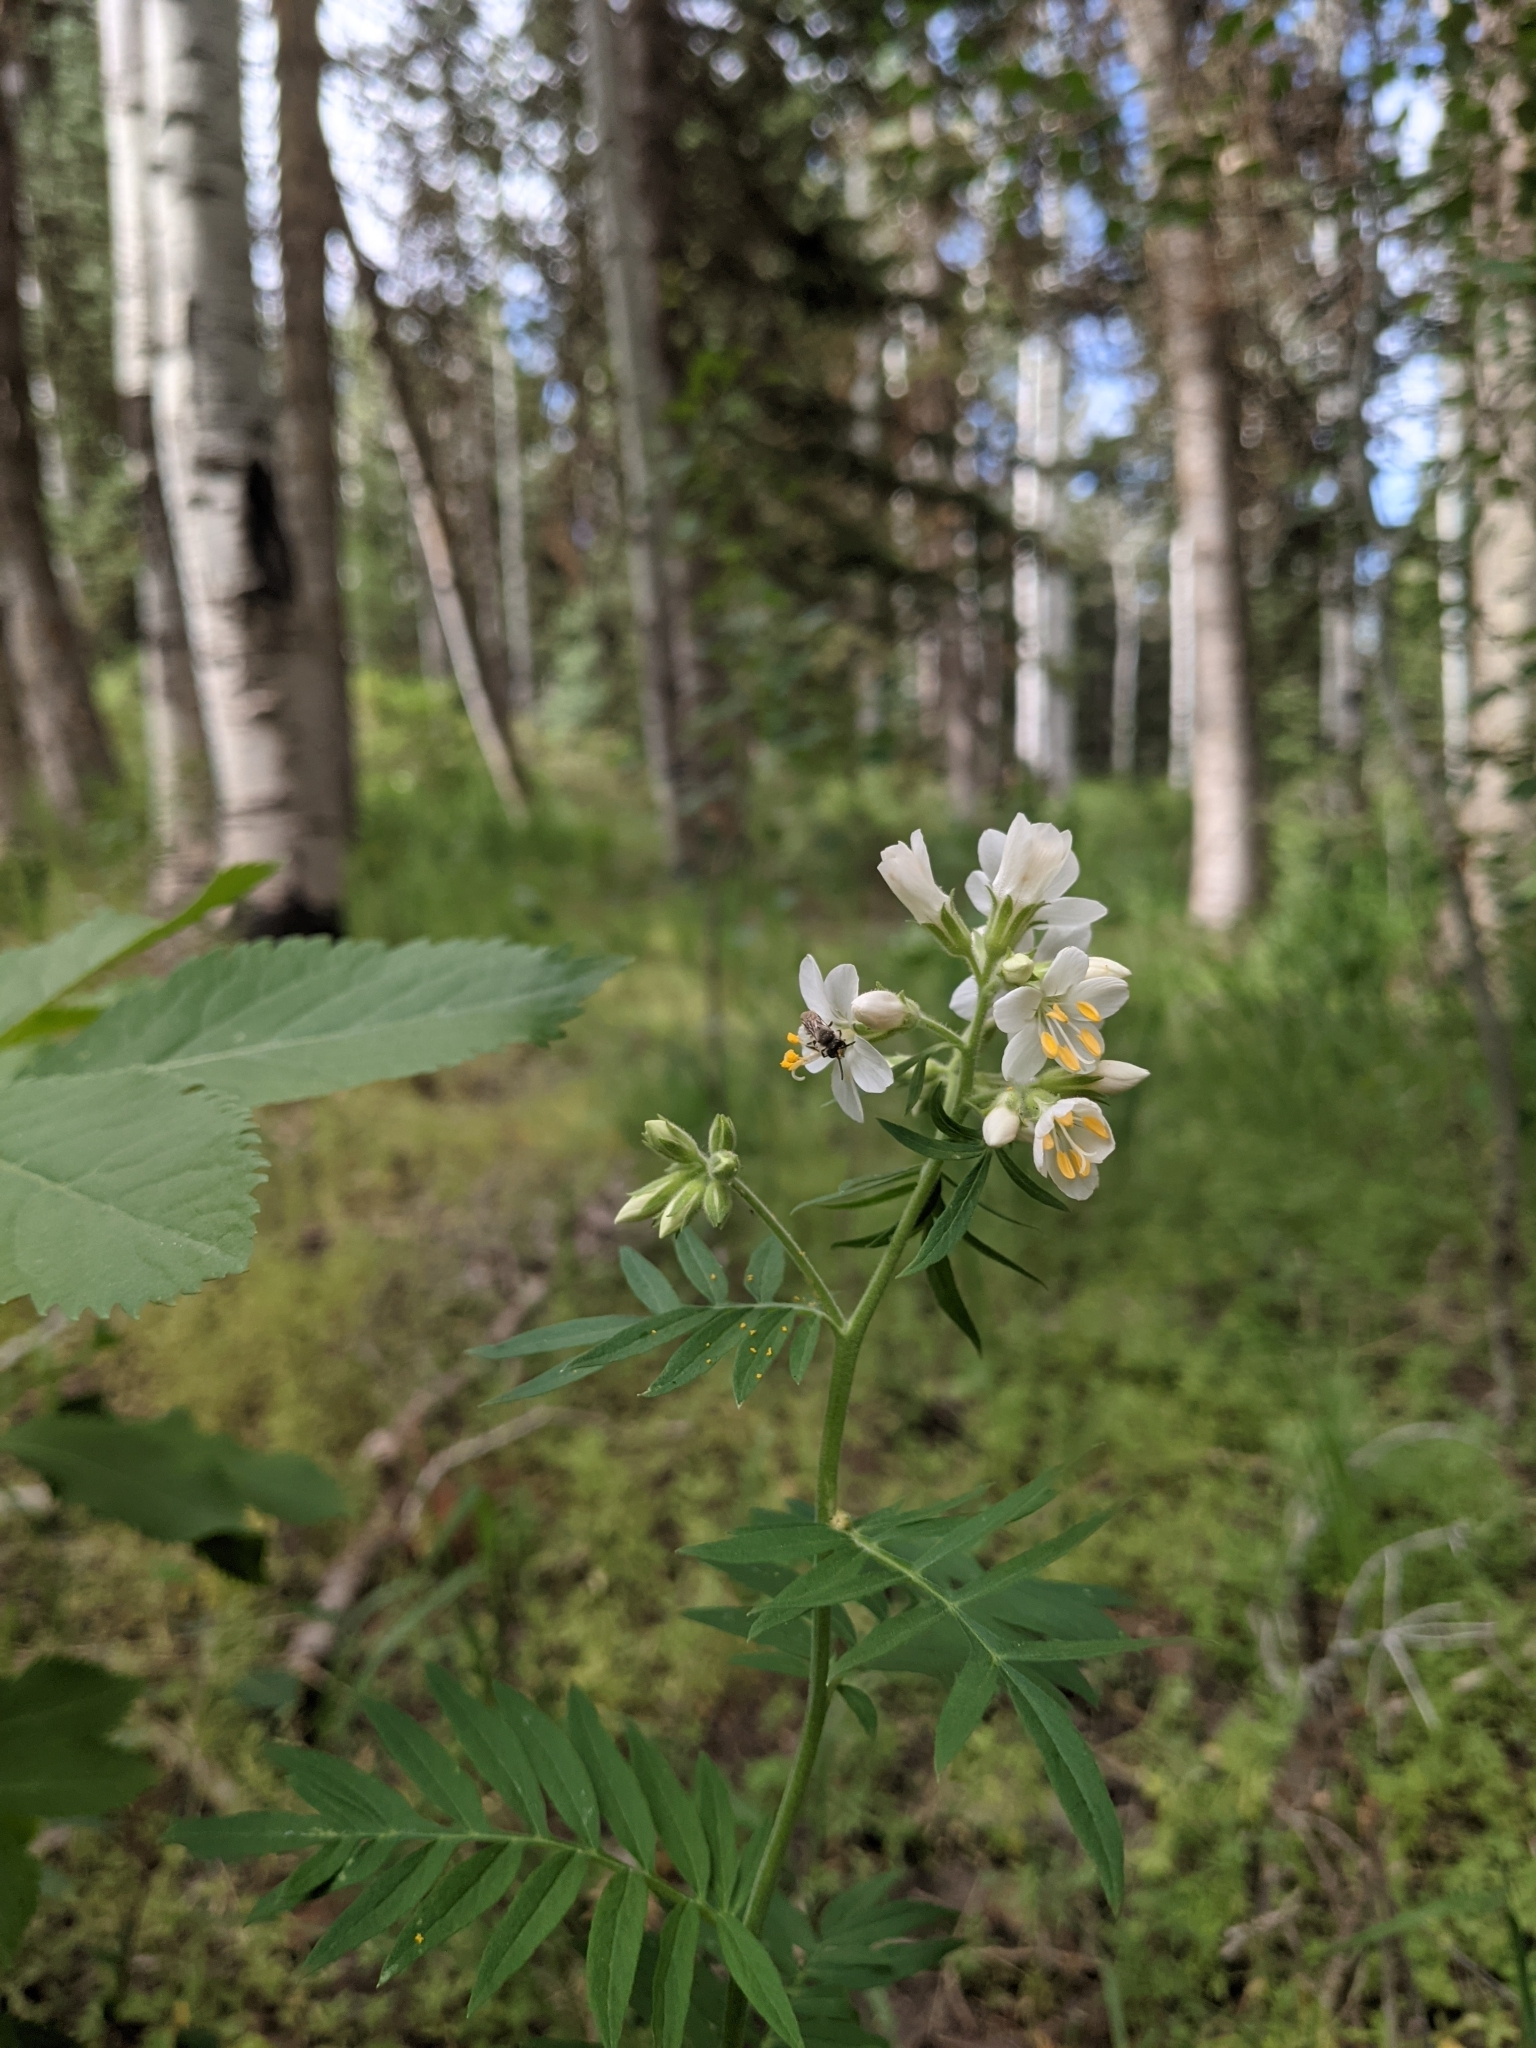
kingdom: Plantae
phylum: Tracheophyta
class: Magnoliopsida
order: Ericales
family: Polemoniaceae
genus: Polemonium
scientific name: Polemonium foliosissimum
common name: Leafy jacob's-ladder
